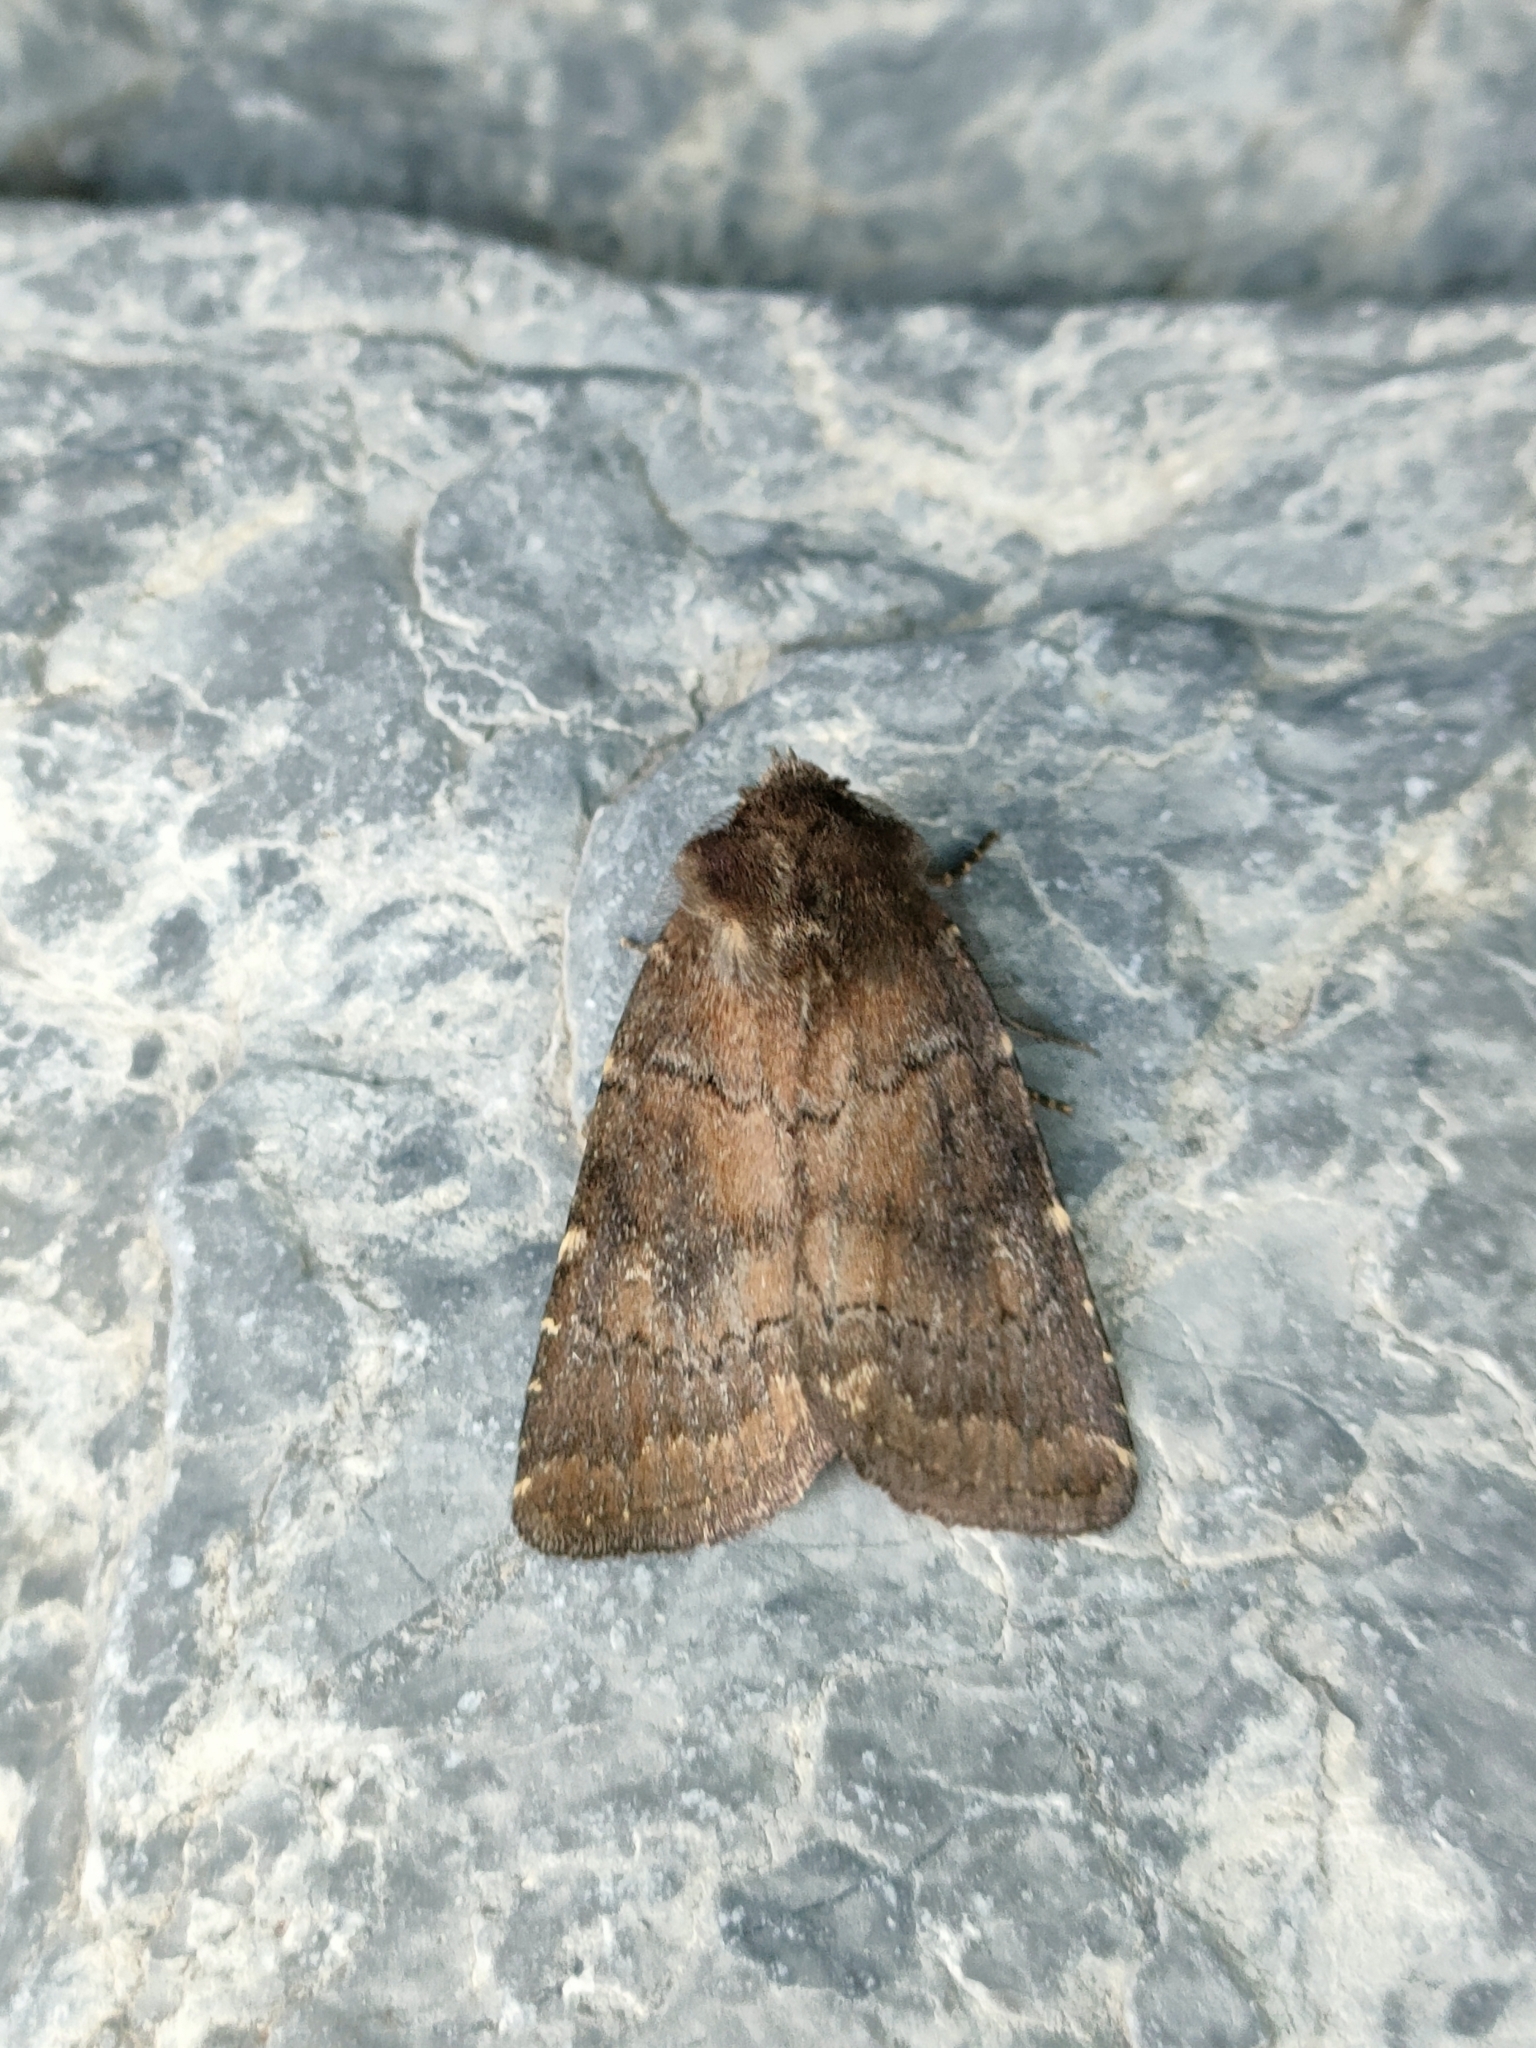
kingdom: Animalia
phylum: Arthropoda
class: Insecta
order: Lepidoptera
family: Noctuidae
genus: Charanyca
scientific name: Charanyca ferruginea
